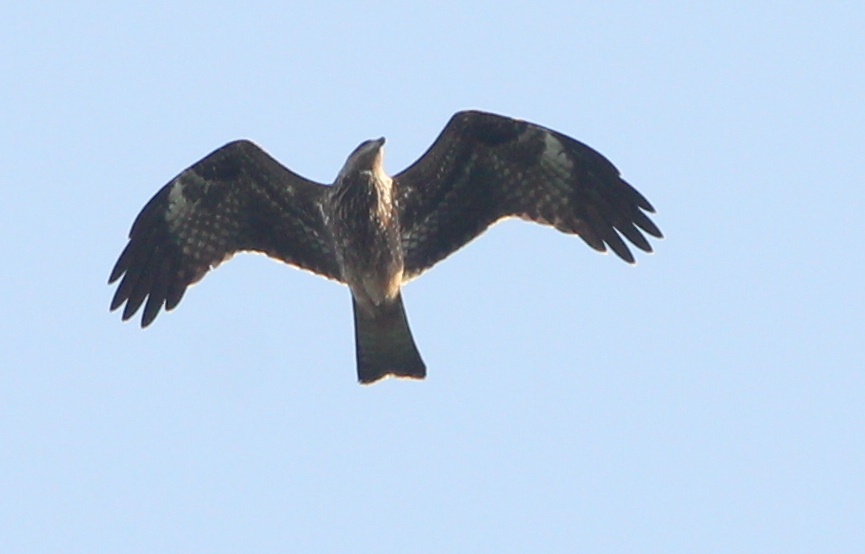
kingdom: Animalia
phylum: Chordata
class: Aves
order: Accipitriformes
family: Accipitridae
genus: Milvus
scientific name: Milvus migrans
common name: Black kite
